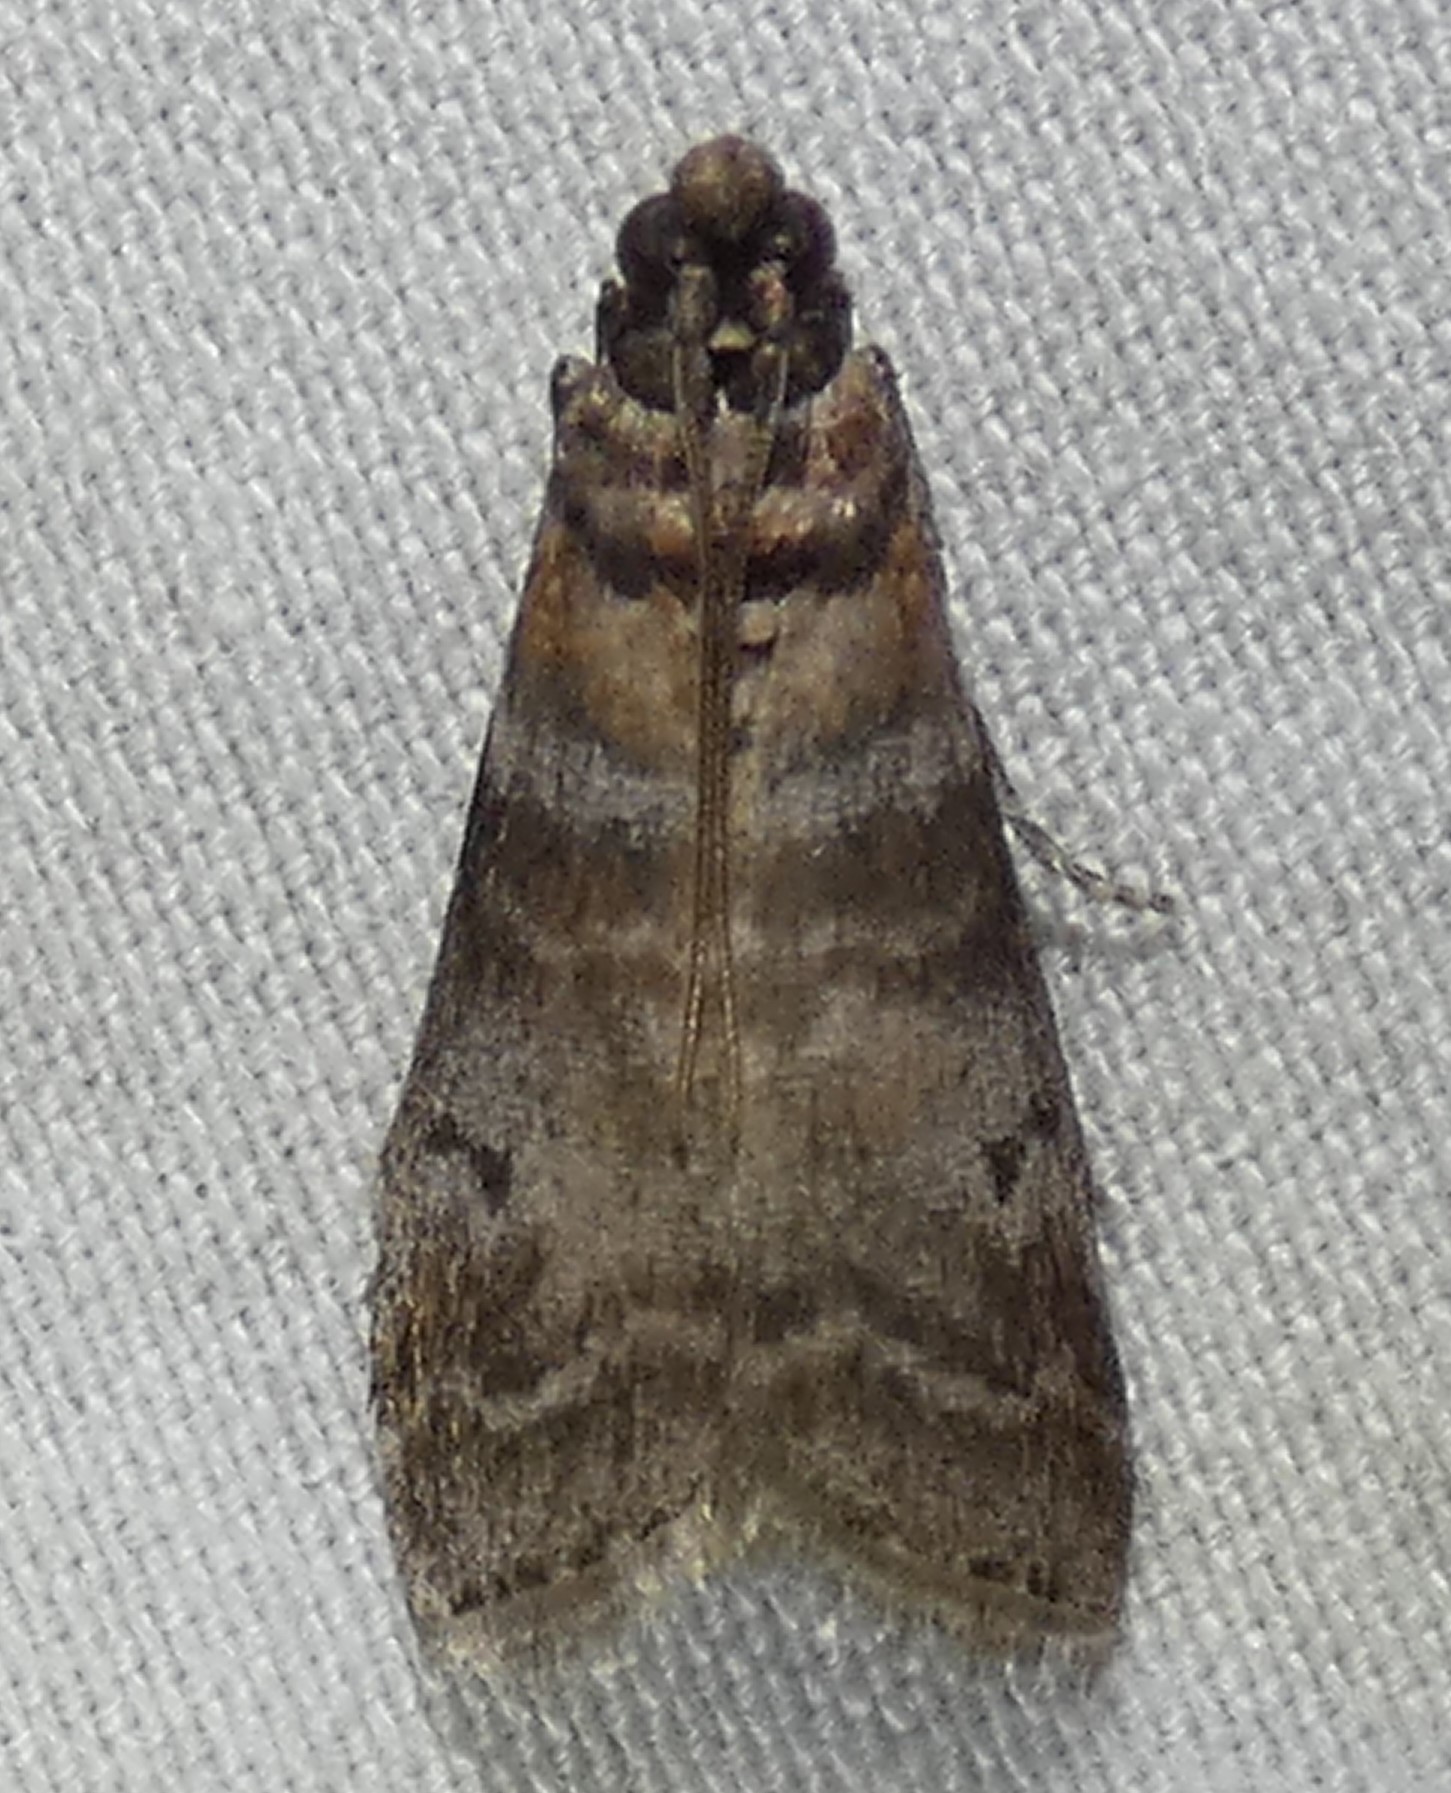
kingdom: Animalia
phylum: Arthropoda
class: Insecta
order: Lepidoptera
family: Pyralidae
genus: Sciota
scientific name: Sciota uvinella
